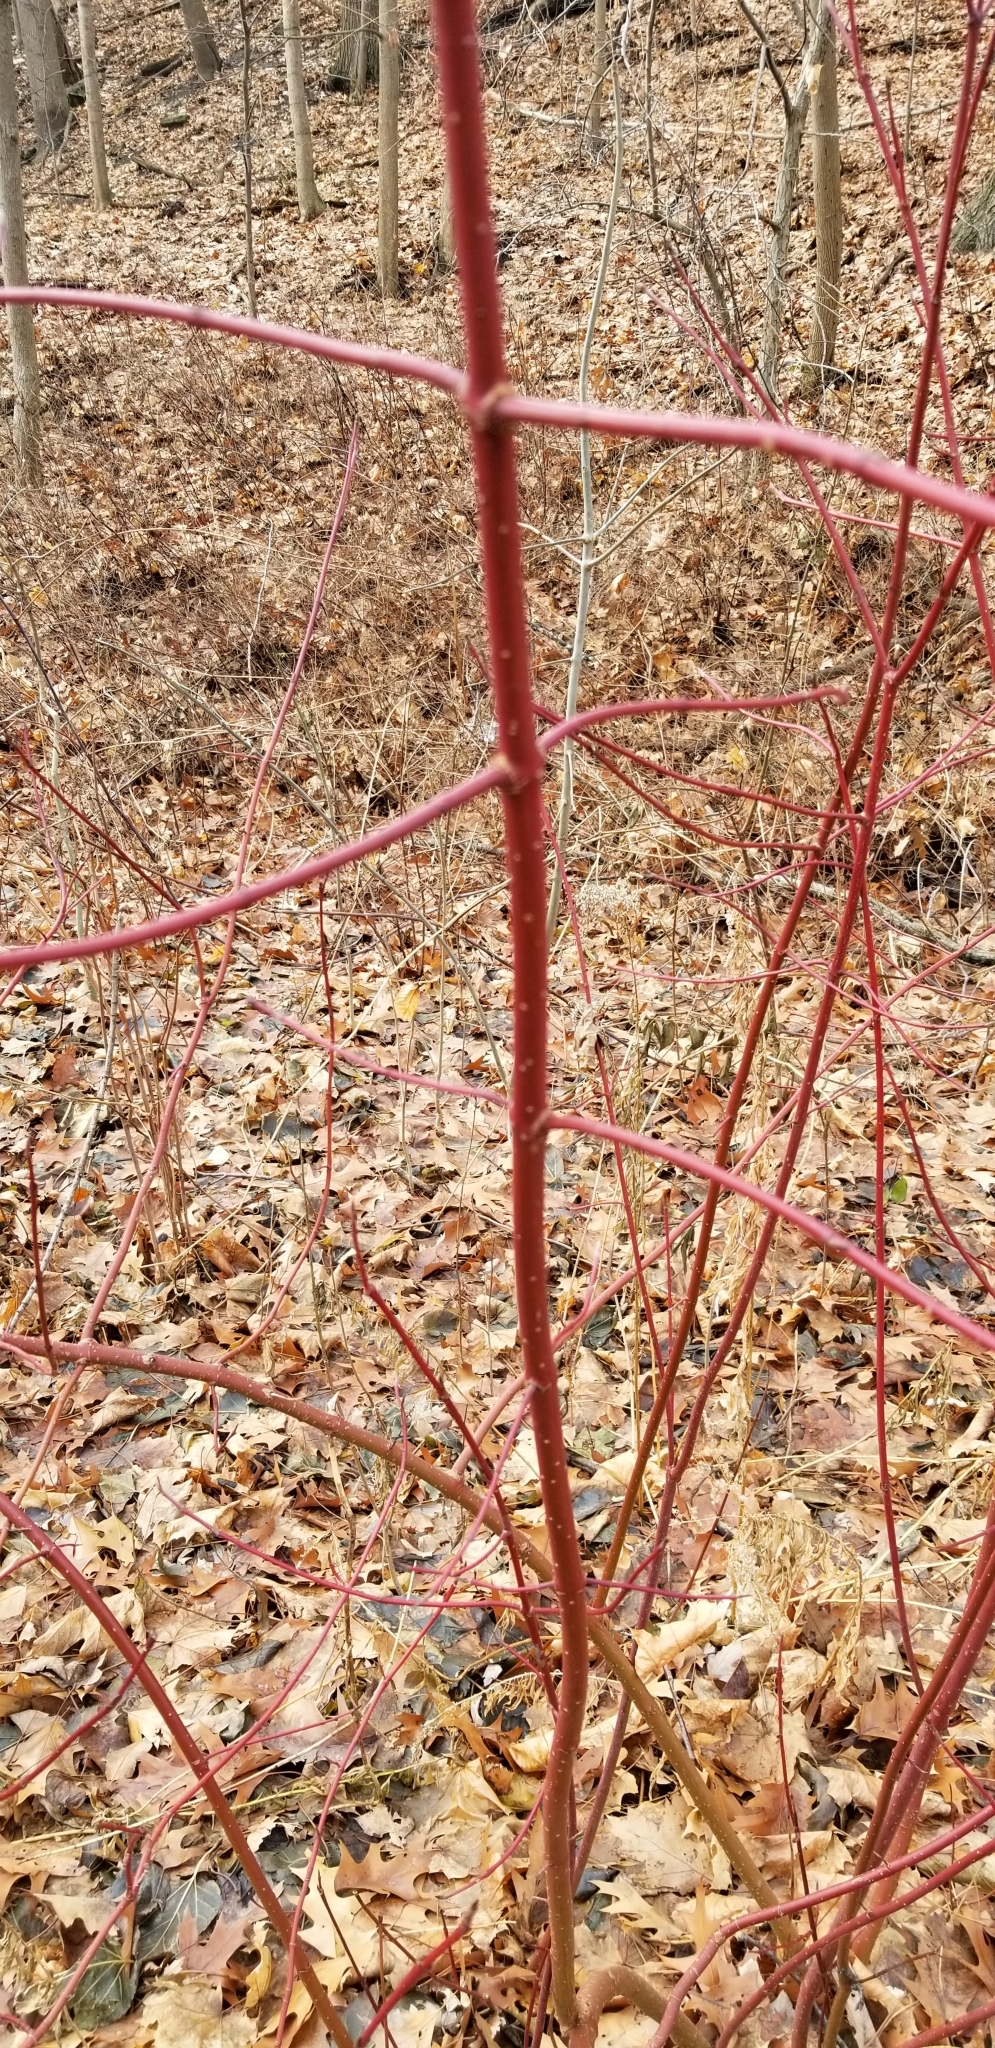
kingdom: Plantae
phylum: Tracheophyta
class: Magnoliopsida
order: Cornales
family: Cornaceae
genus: Cornus
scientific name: Cornus sericea
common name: Red-osier dogwood
